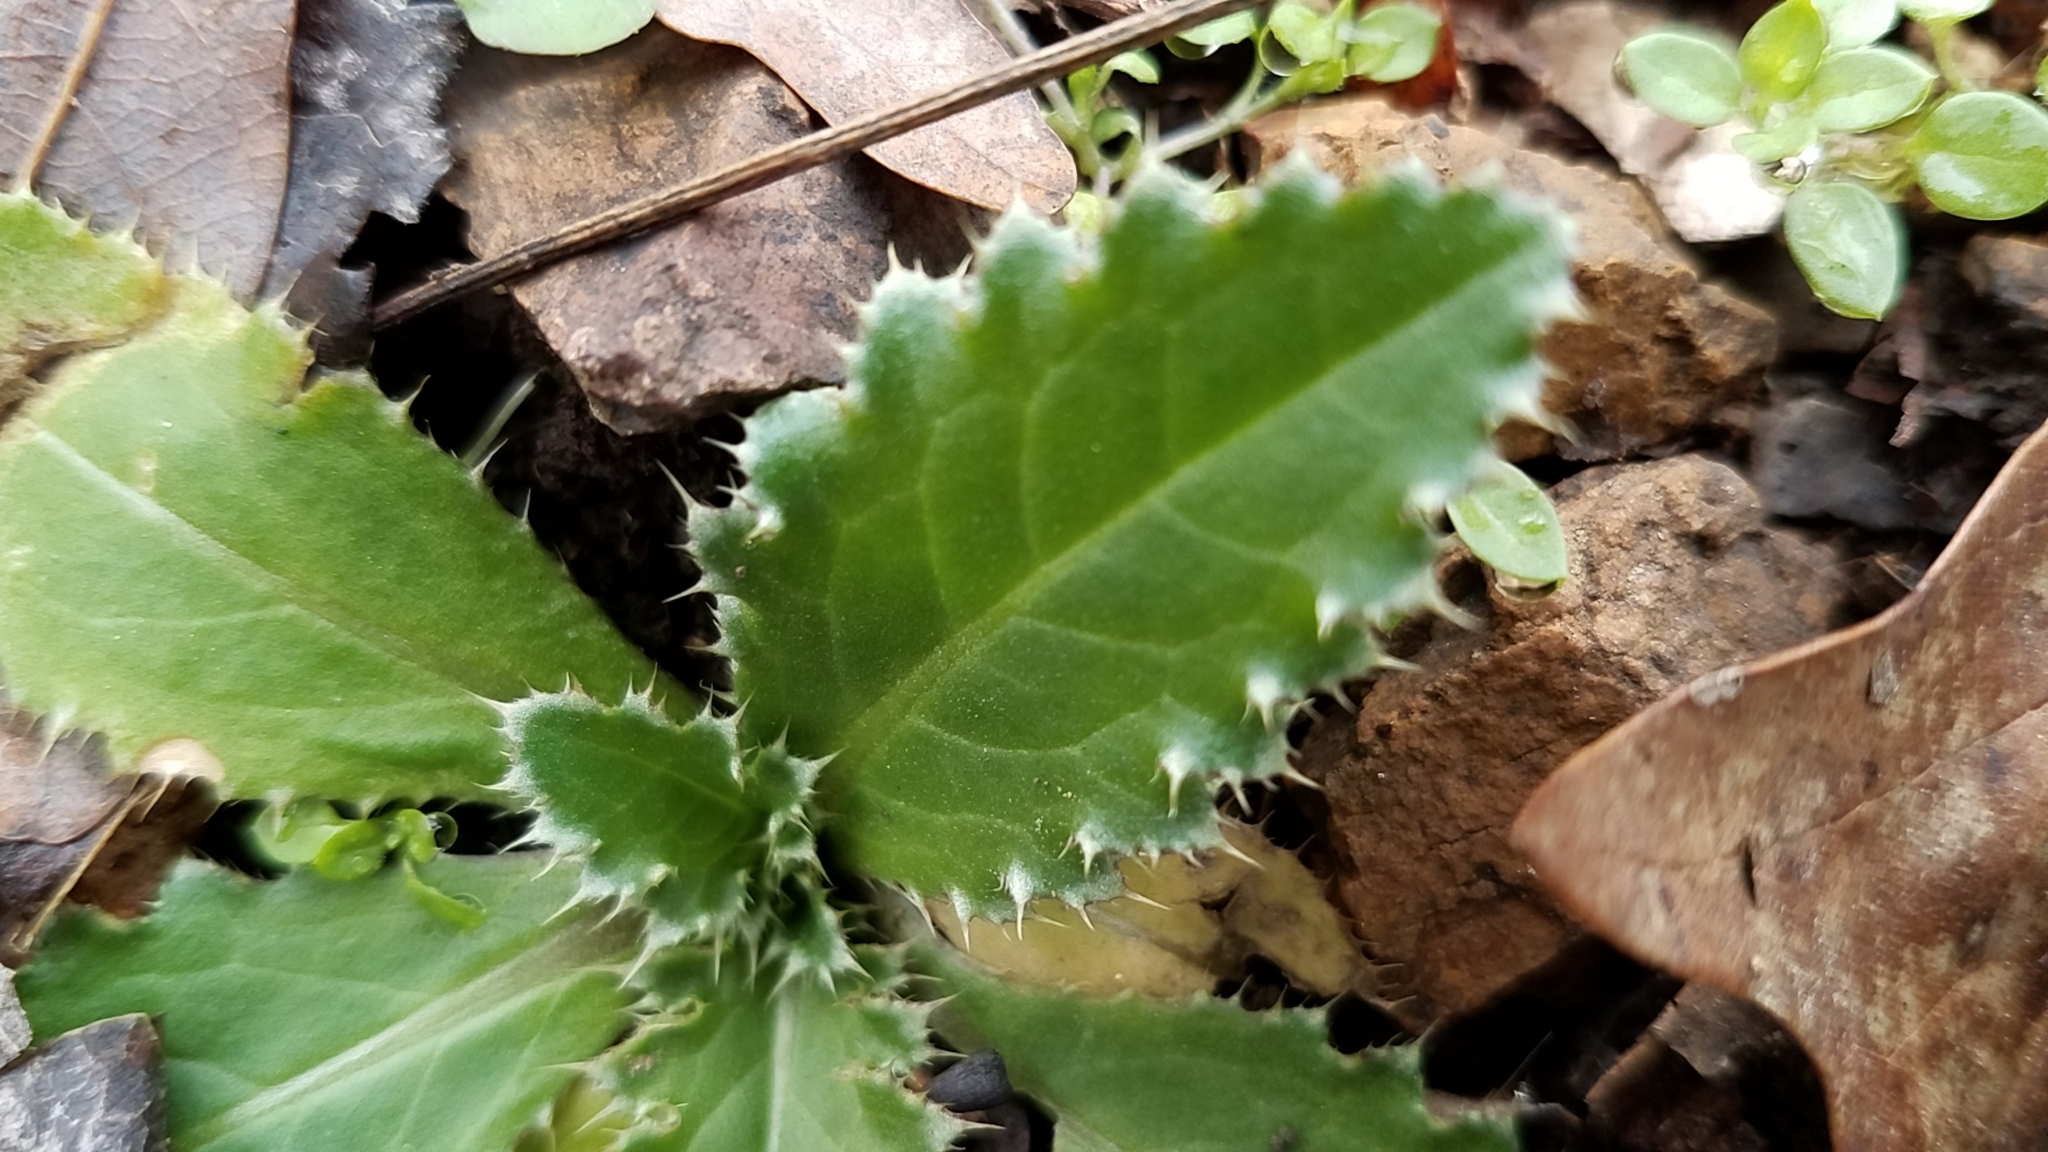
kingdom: Plantae
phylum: Tracheophyta
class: Magnoliopsida
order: Asterales
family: Asteraceae
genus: Carduus
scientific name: Carduus nutans
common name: Musk thistle
